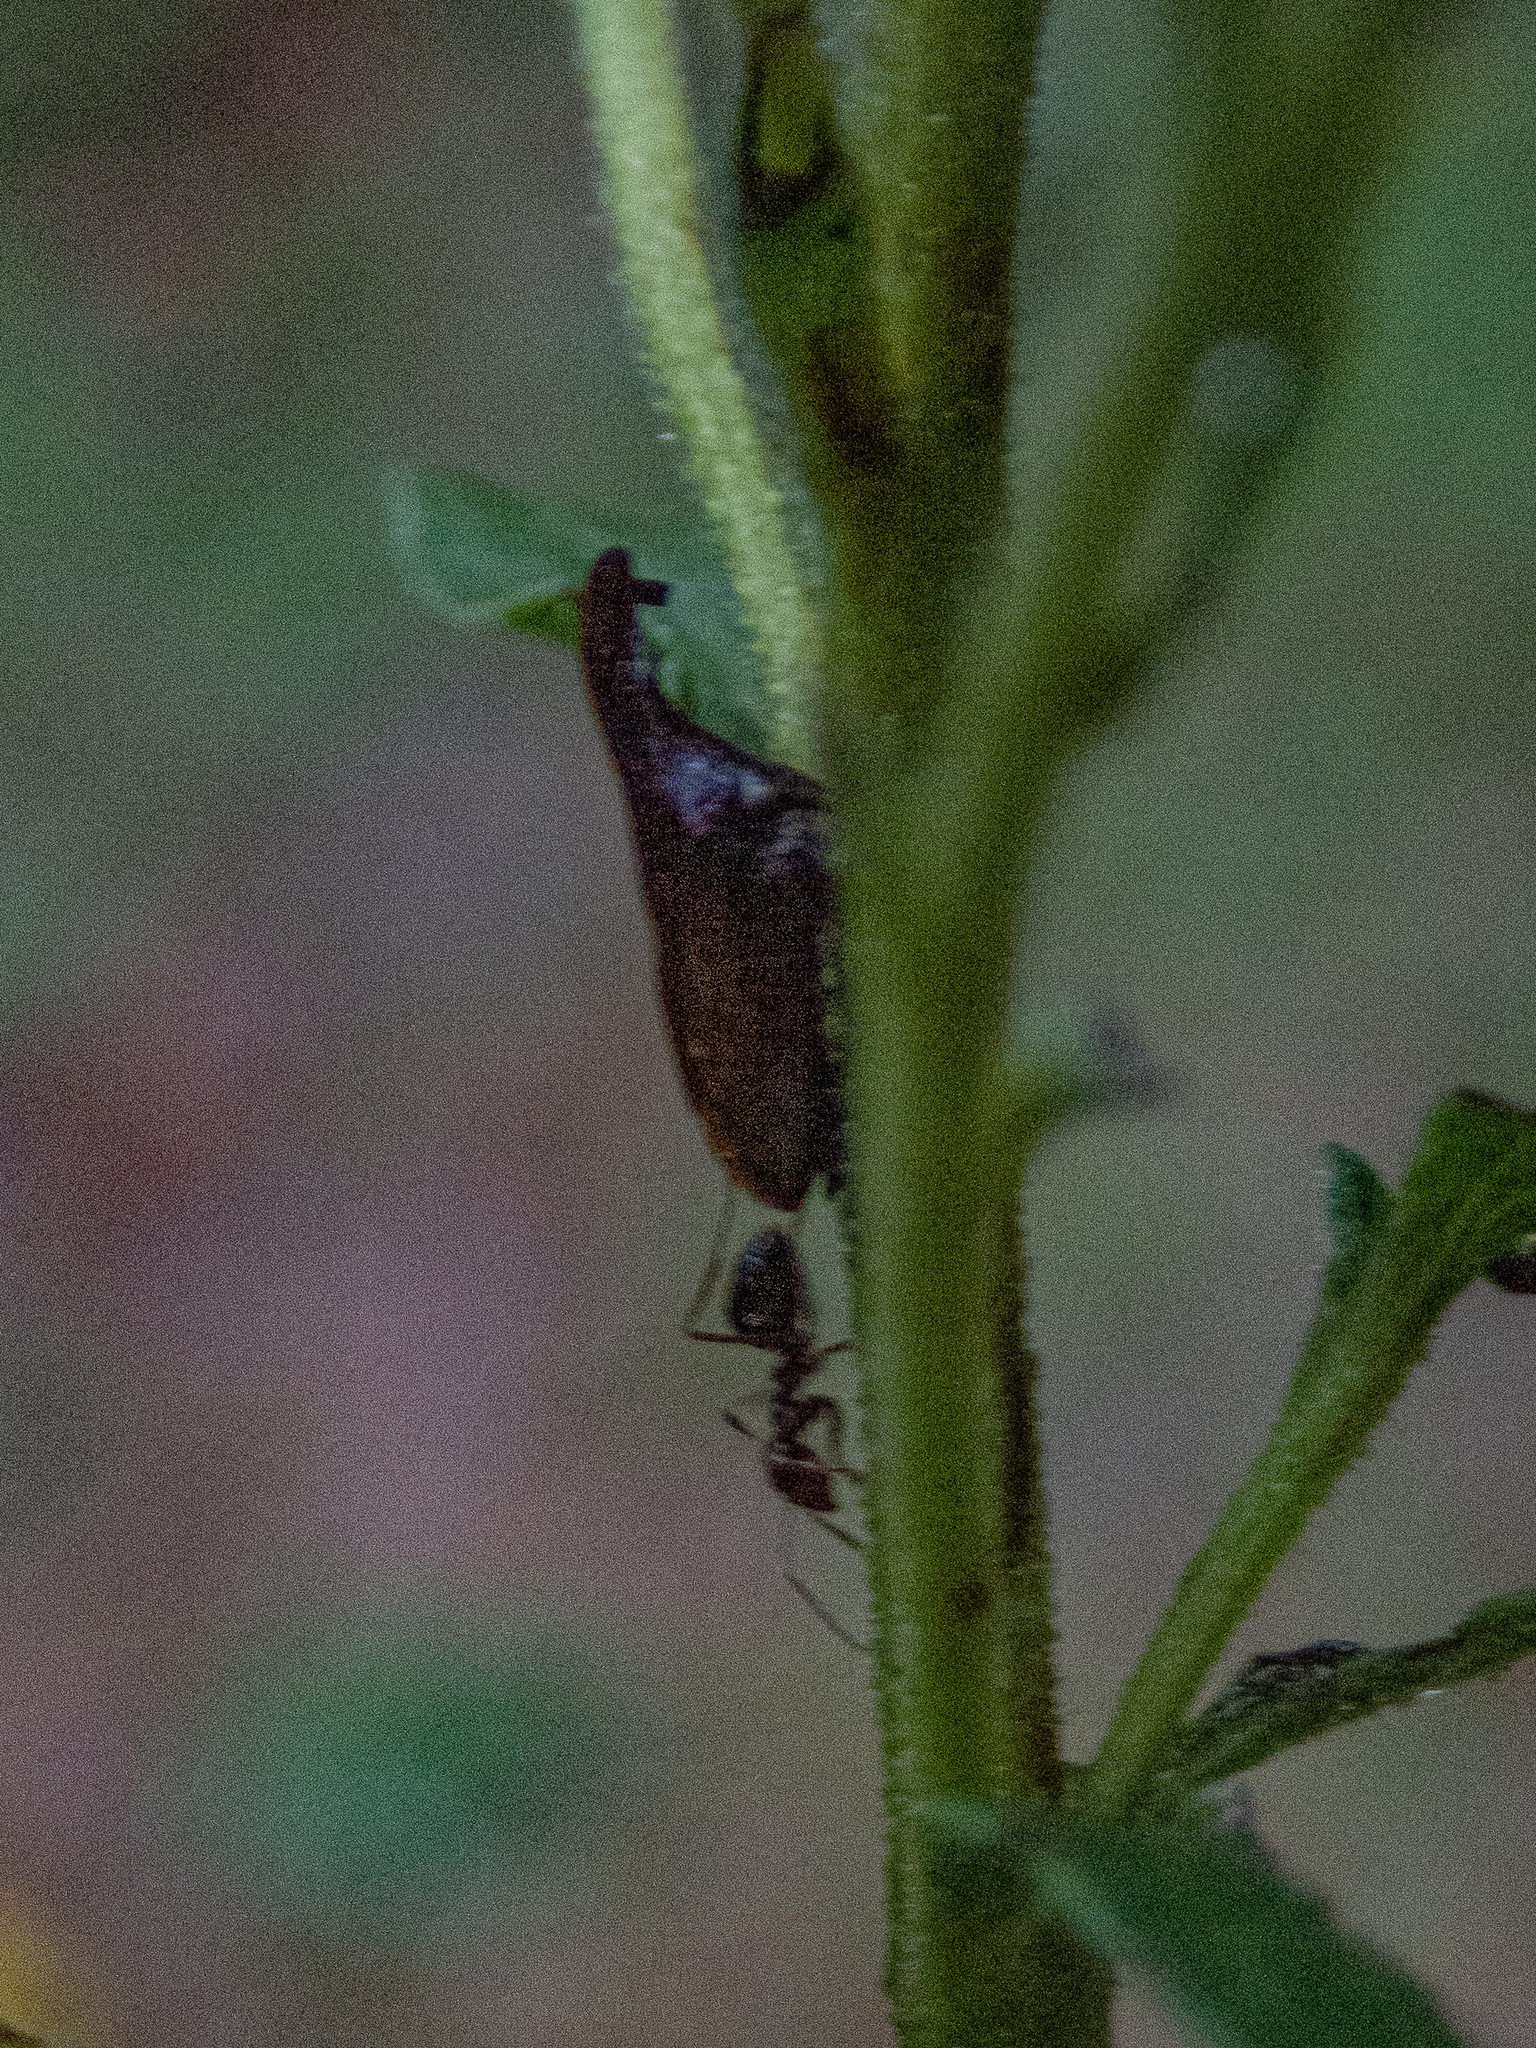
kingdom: Animalia
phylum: Arthropoda
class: Insecta
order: Hemiptera
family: Membracidae
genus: Enchenopa
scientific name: Enchenopa latipes
